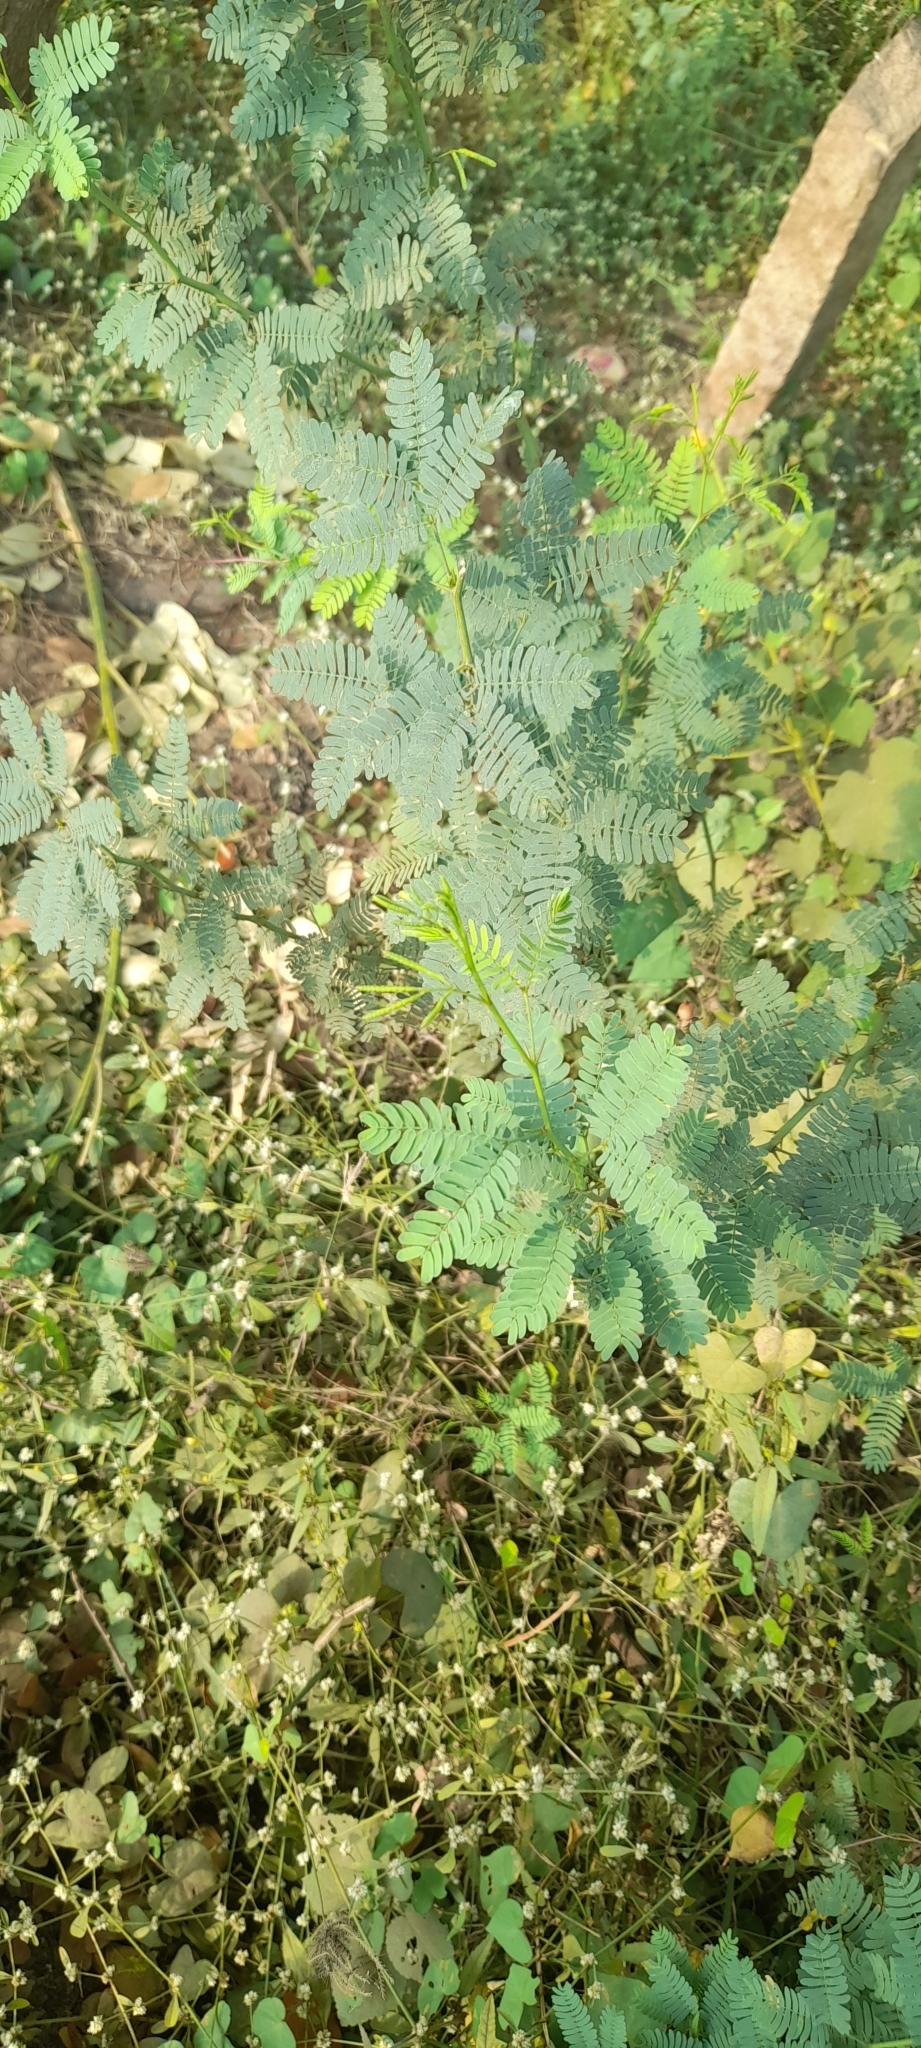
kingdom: Plantae
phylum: Tracheophyta
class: Magnoliopsida
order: Fabales
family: Fabaceae
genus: Prosopis
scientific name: Prosopis juliflora
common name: Mesquite
